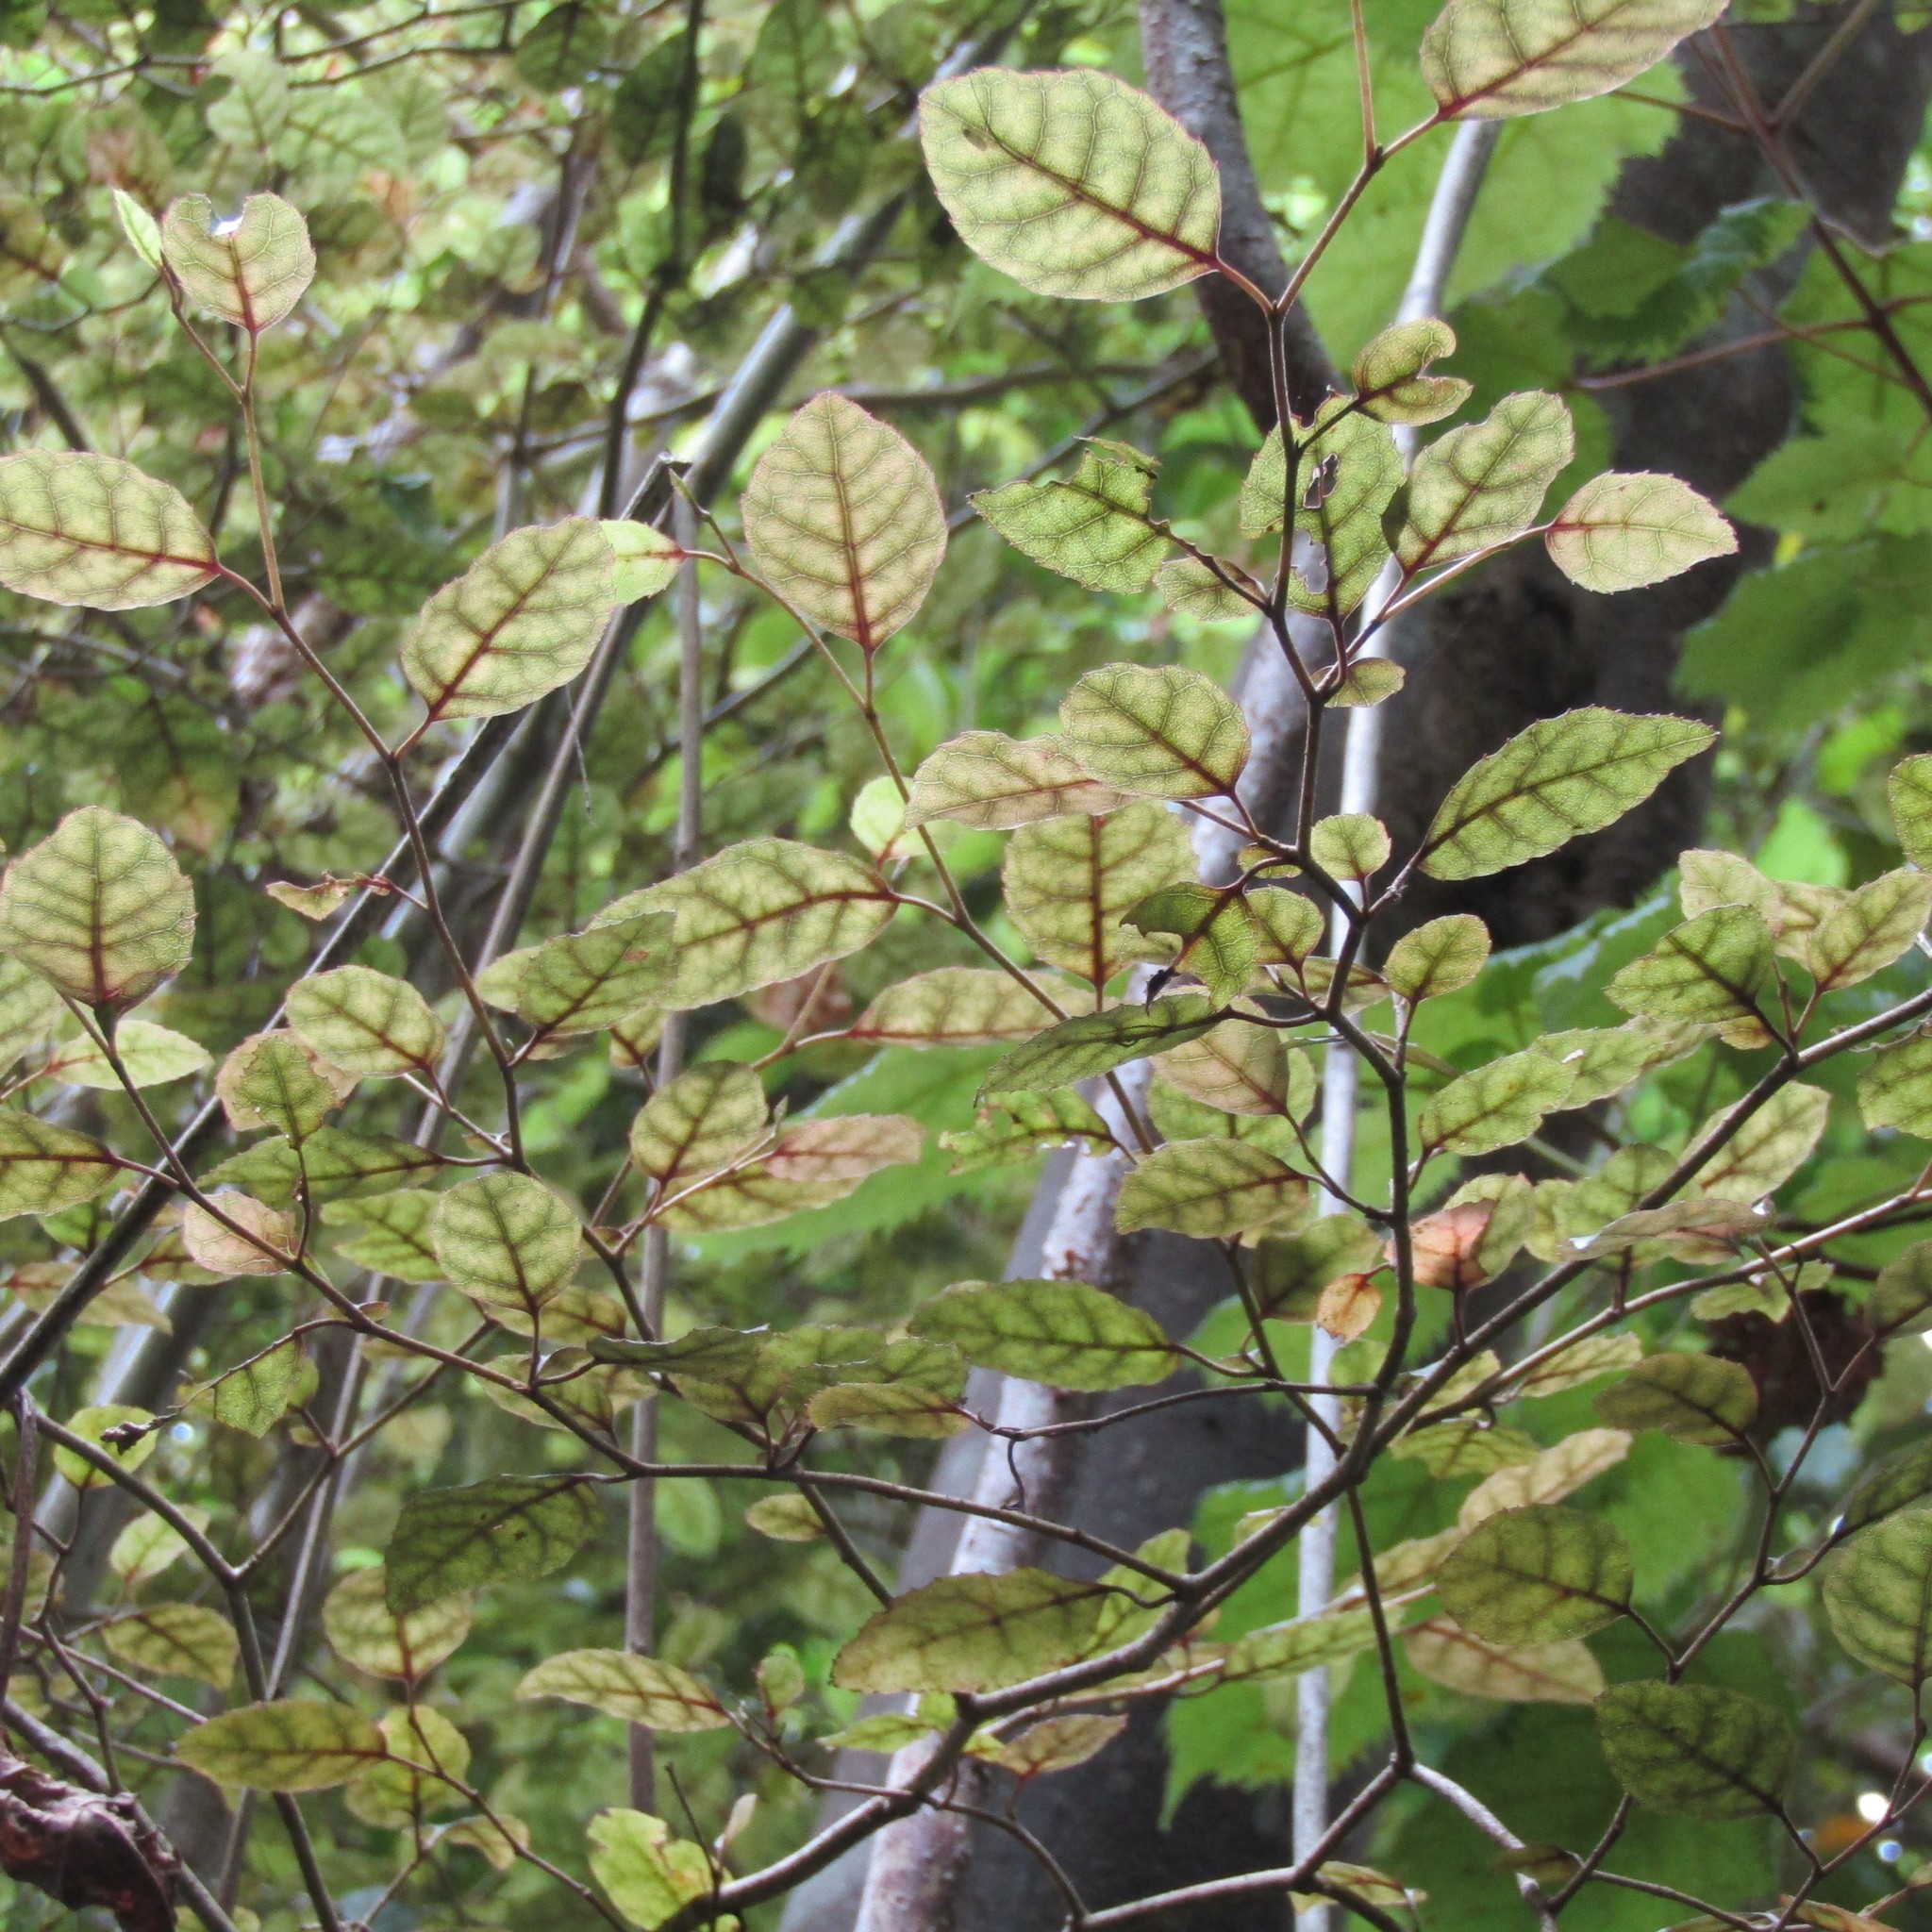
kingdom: Plantae
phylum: Tracheophyta
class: Magnoliopsida
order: Asterales
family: Rousseaceae
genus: Carpodetus
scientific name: Carpodetus serratus
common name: White mapau
